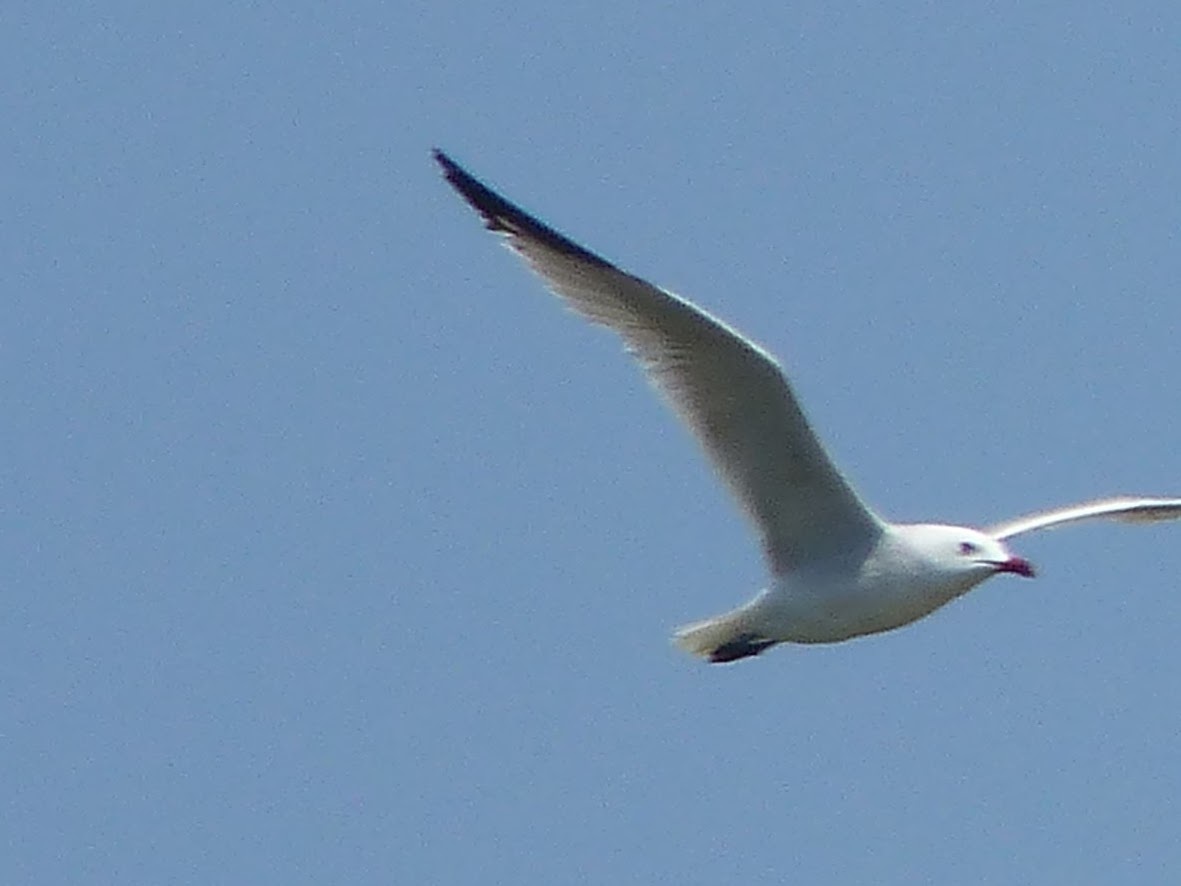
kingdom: Animalia
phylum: Chordata
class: Aves
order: Charadriiformes
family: Laridae
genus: Ichthyaetus
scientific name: Ichthyaetus audouinii
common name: Audouin's gull
